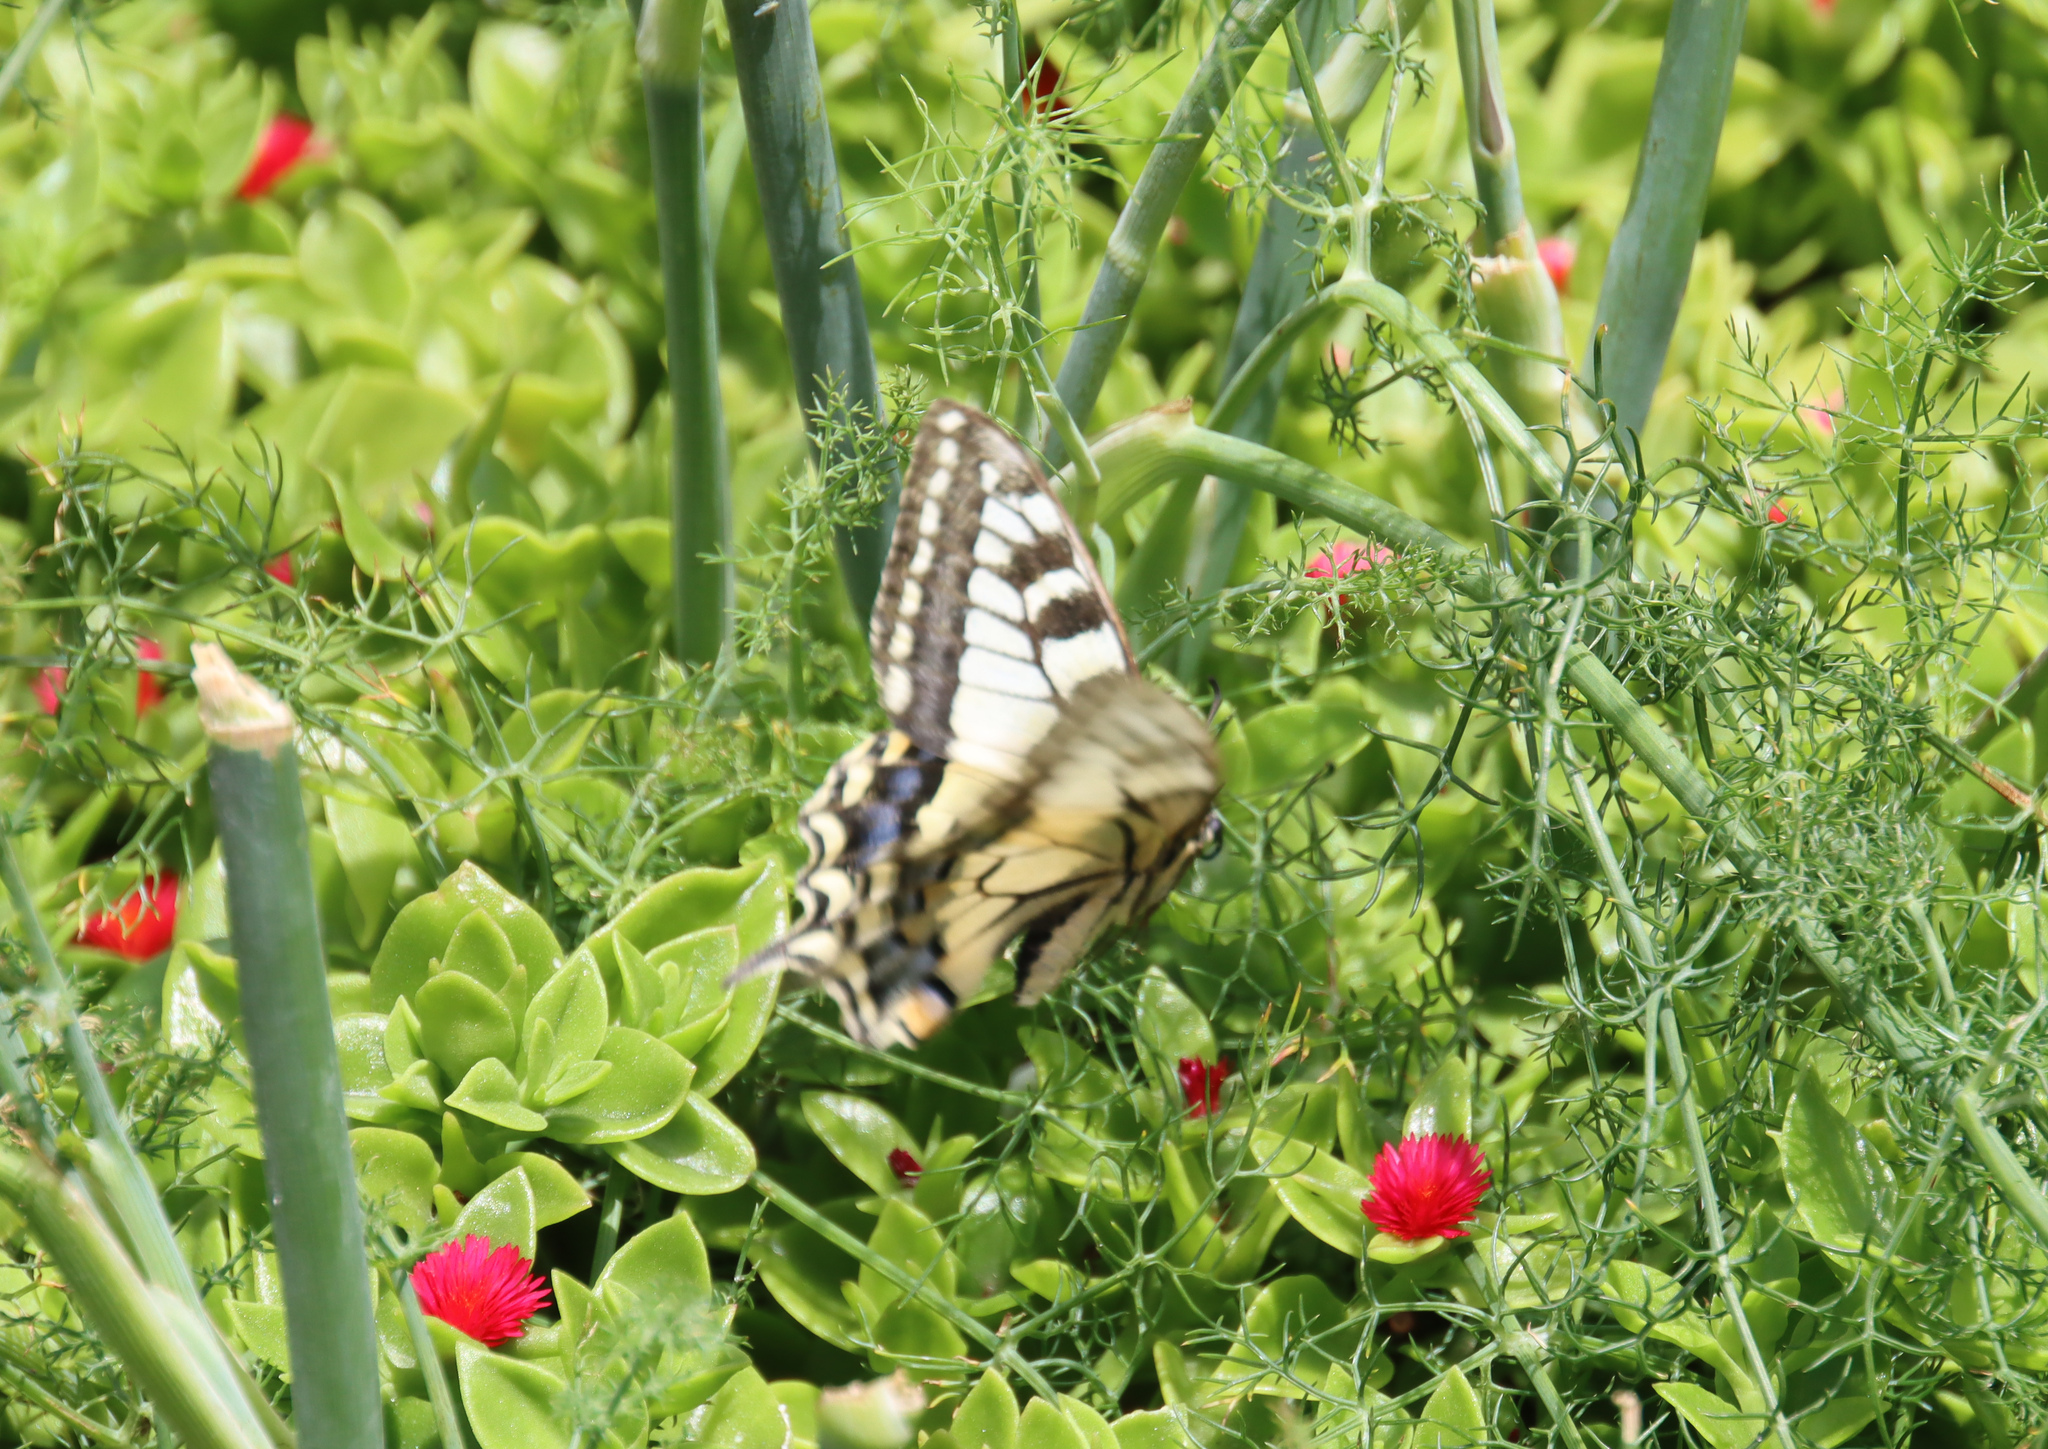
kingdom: Animalia
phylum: Arthropoda
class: Insecta
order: Lepidoptera
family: Papilionidae
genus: Papilio
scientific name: Papilio machaon
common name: Swallowtail
